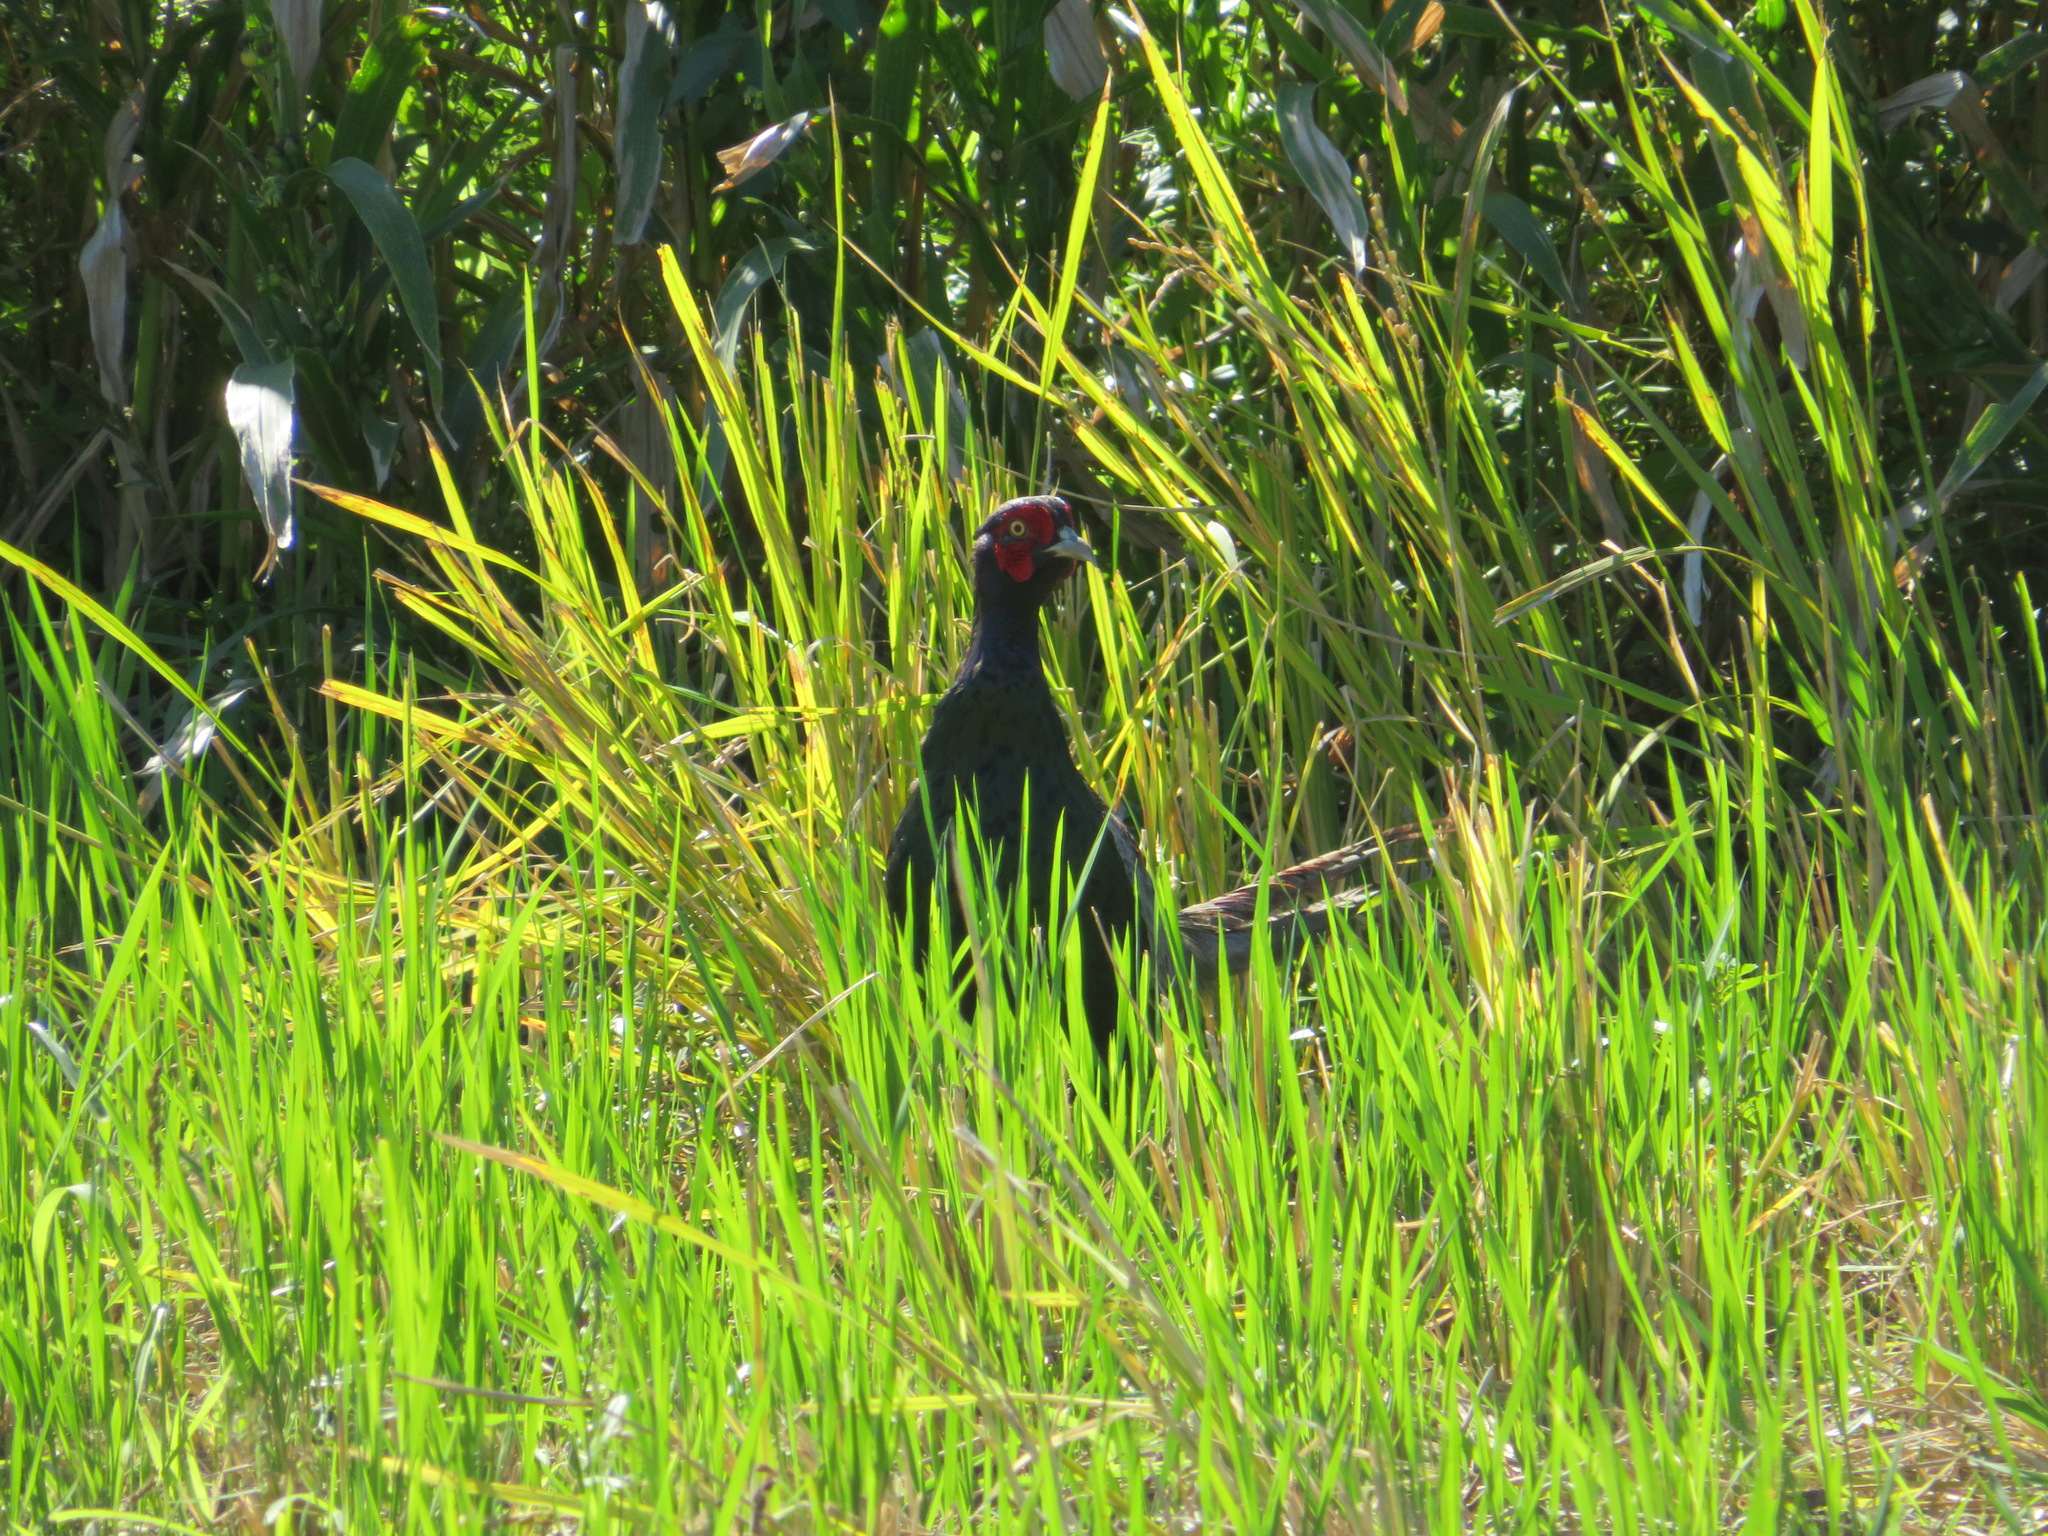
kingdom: Animalia
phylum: Chordata
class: Aves
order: Galliformes
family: Phasianidae
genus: Phasianus
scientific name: Phasianus versicolor
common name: Green pheasant
